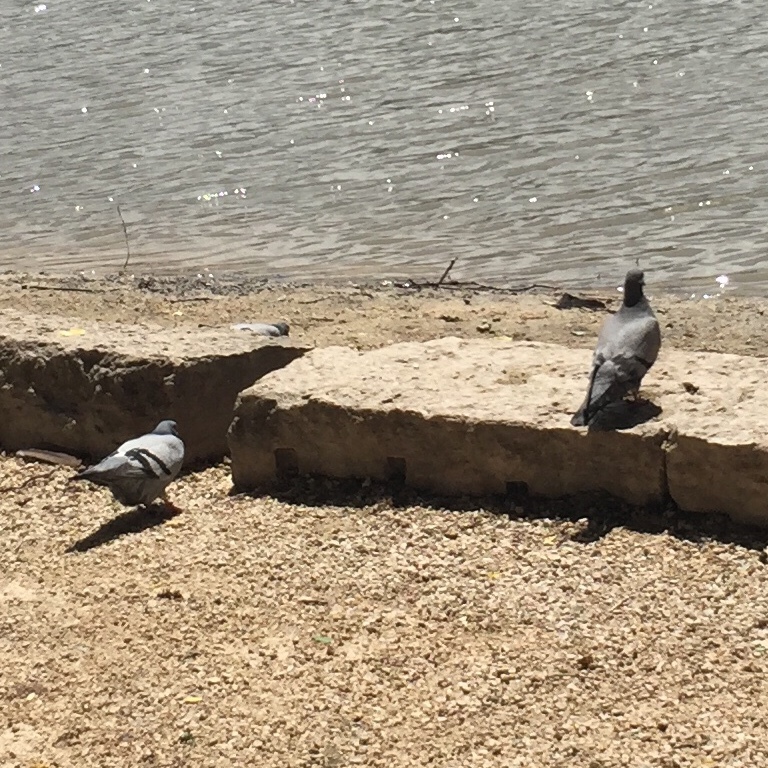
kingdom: Animalia
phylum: Chordata
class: Aves
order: Columbiformes
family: Columbidae
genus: Columba
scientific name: Columba livia
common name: Rock pigeon
